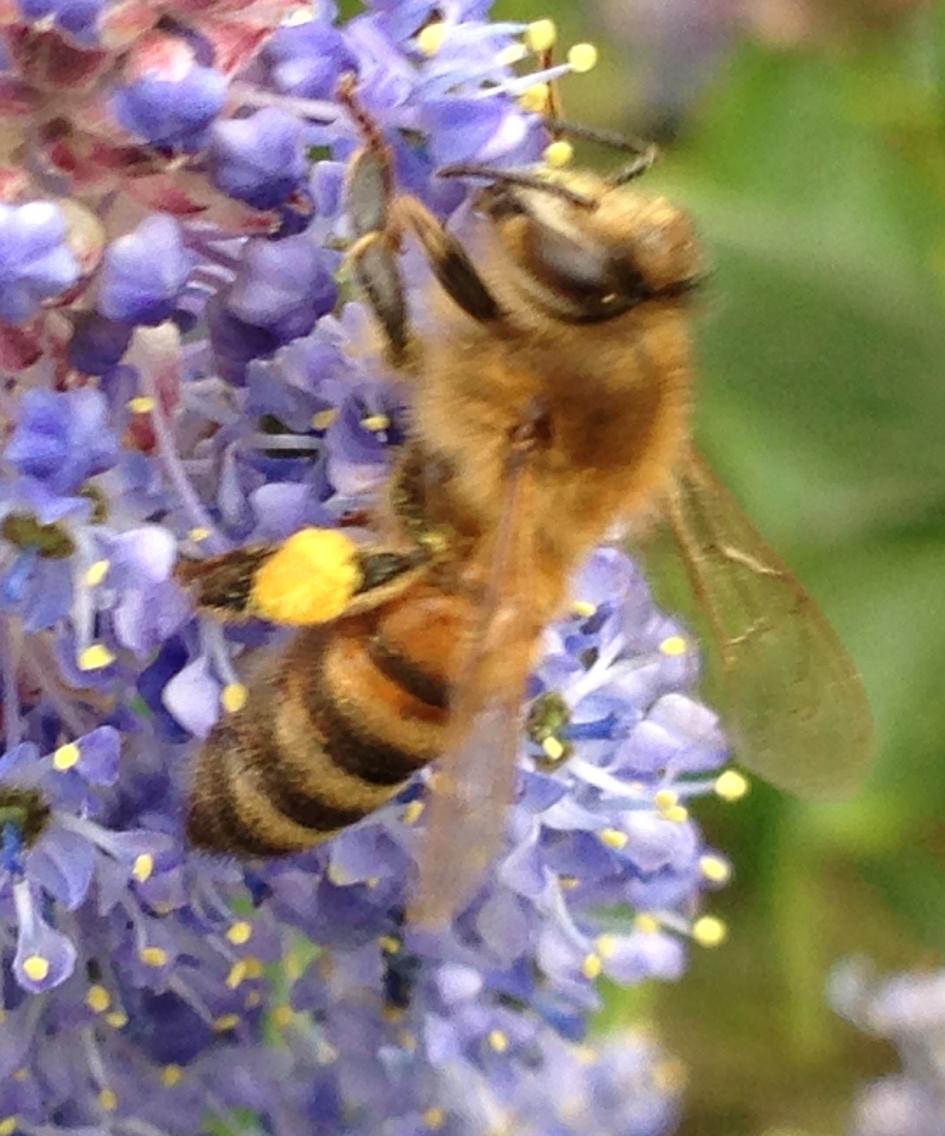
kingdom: Animalia
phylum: Arthropoda
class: Insecta
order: Hymenoptera
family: Apidae
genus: Apis
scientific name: Apis mellifera
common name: Honey bee
